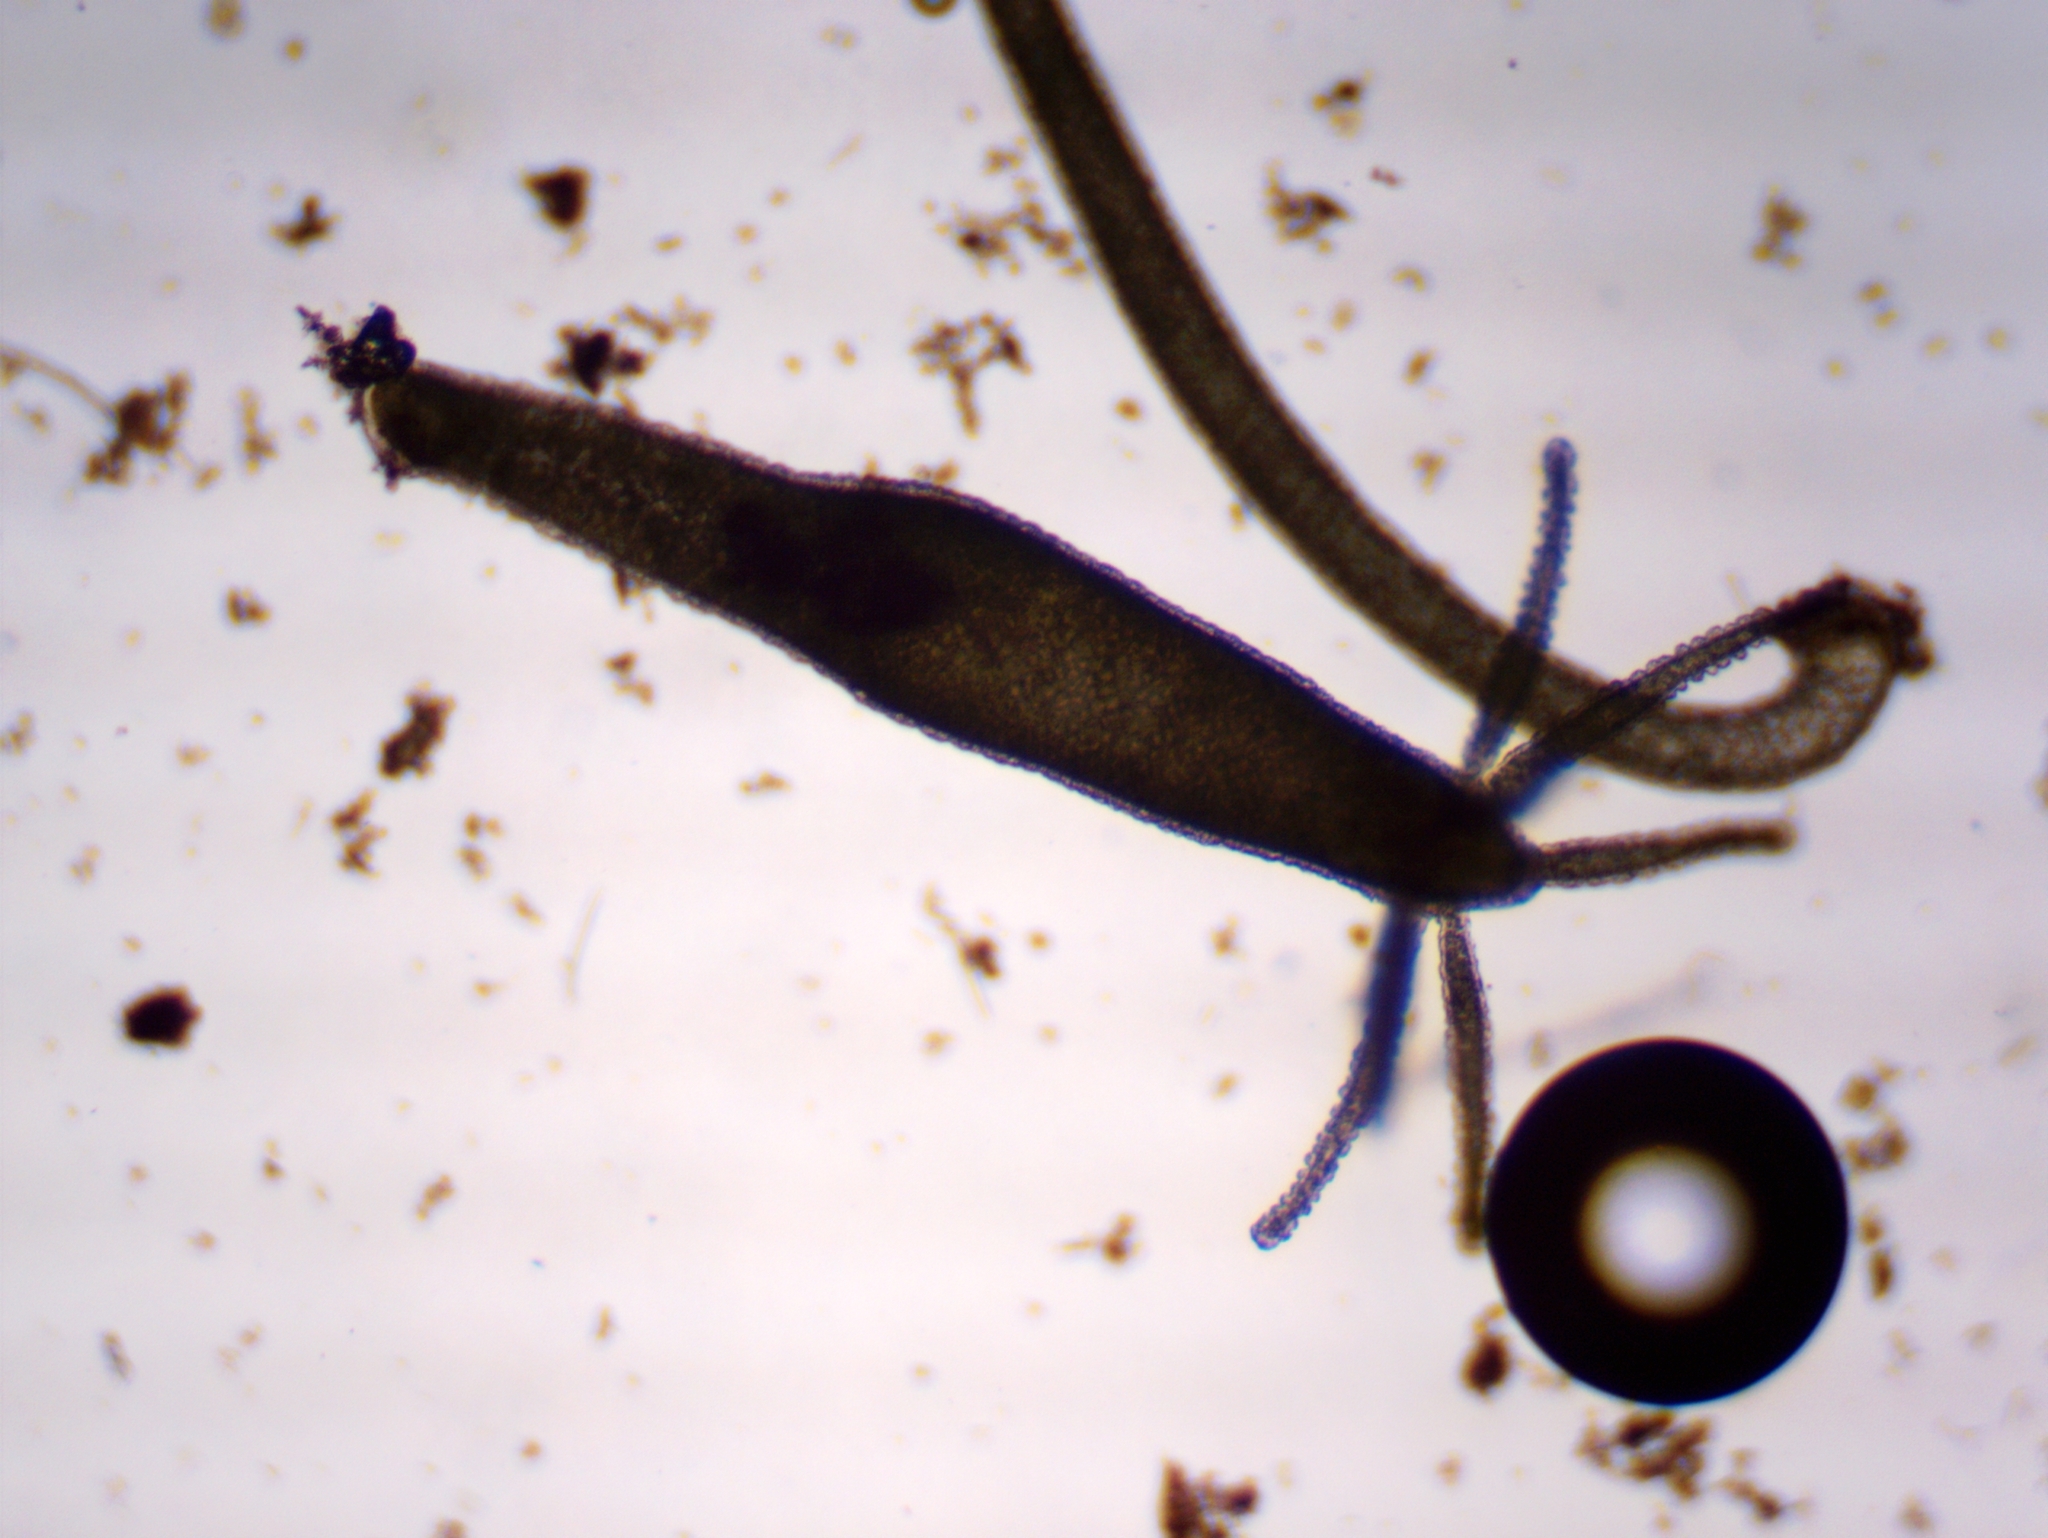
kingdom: Animalia
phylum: Cnidaria
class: Hydrozoa
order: Anthoathecata
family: Hydridae
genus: Hydra
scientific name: Hydra viridissima
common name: Green hydra
